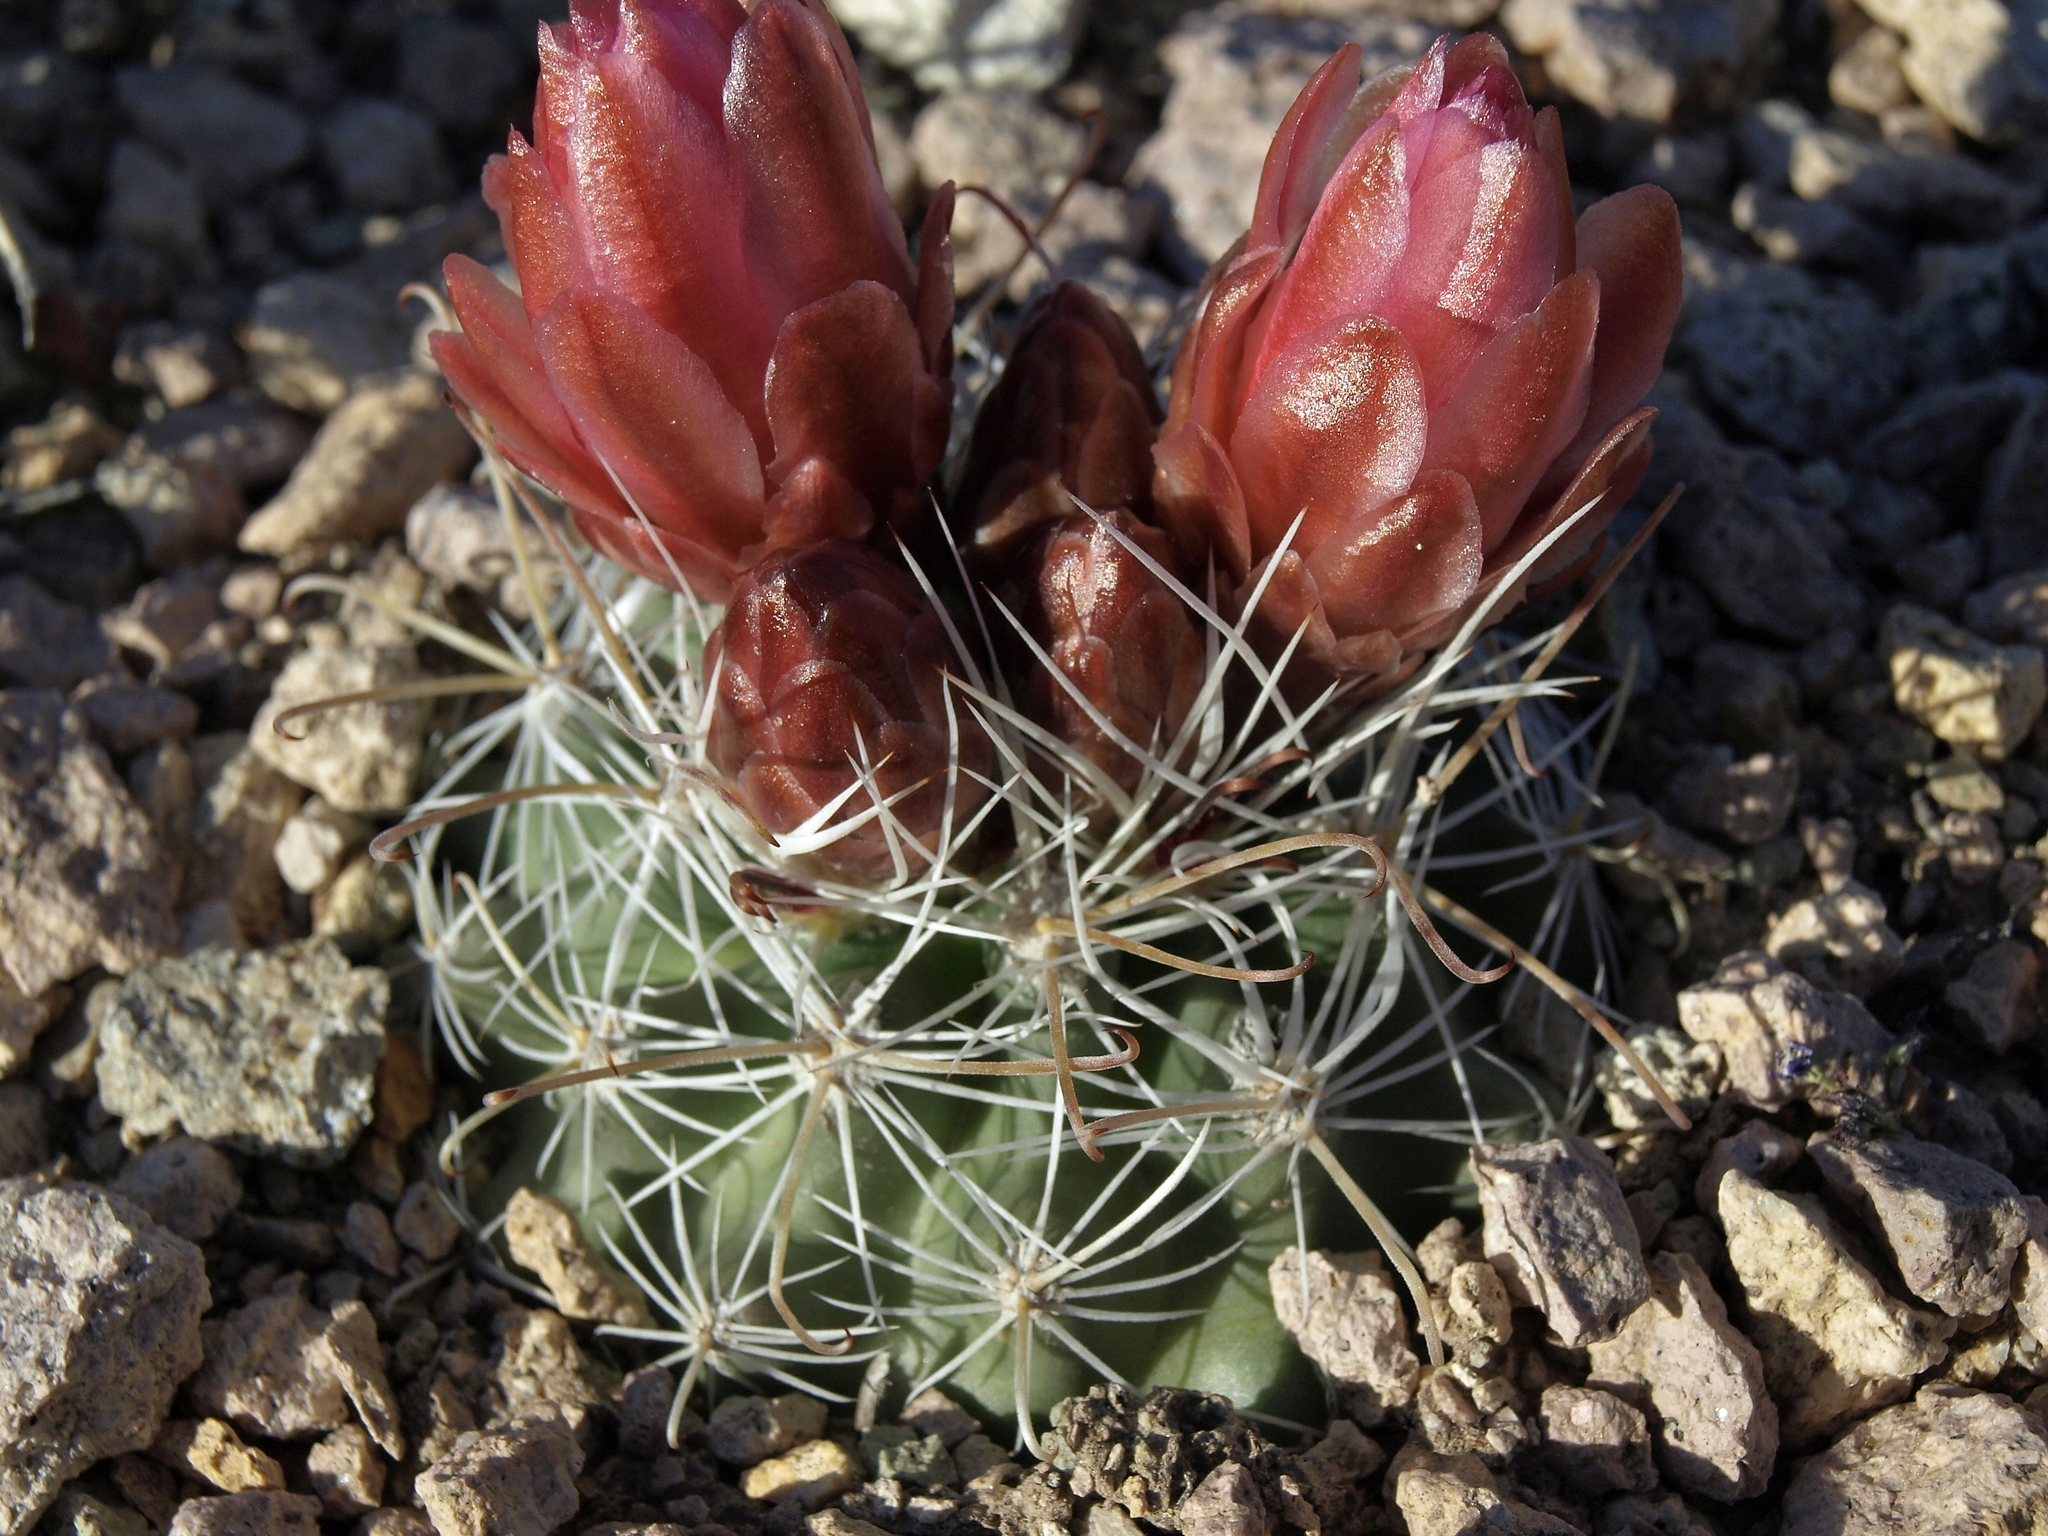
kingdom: Plantae
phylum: Tracheophyta
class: Magnoliopsida
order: Caryophyllales
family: Cactaceae
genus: Sclerocactus
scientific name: Sclerocactus nyensis
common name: Nye county fish-hook cactus
